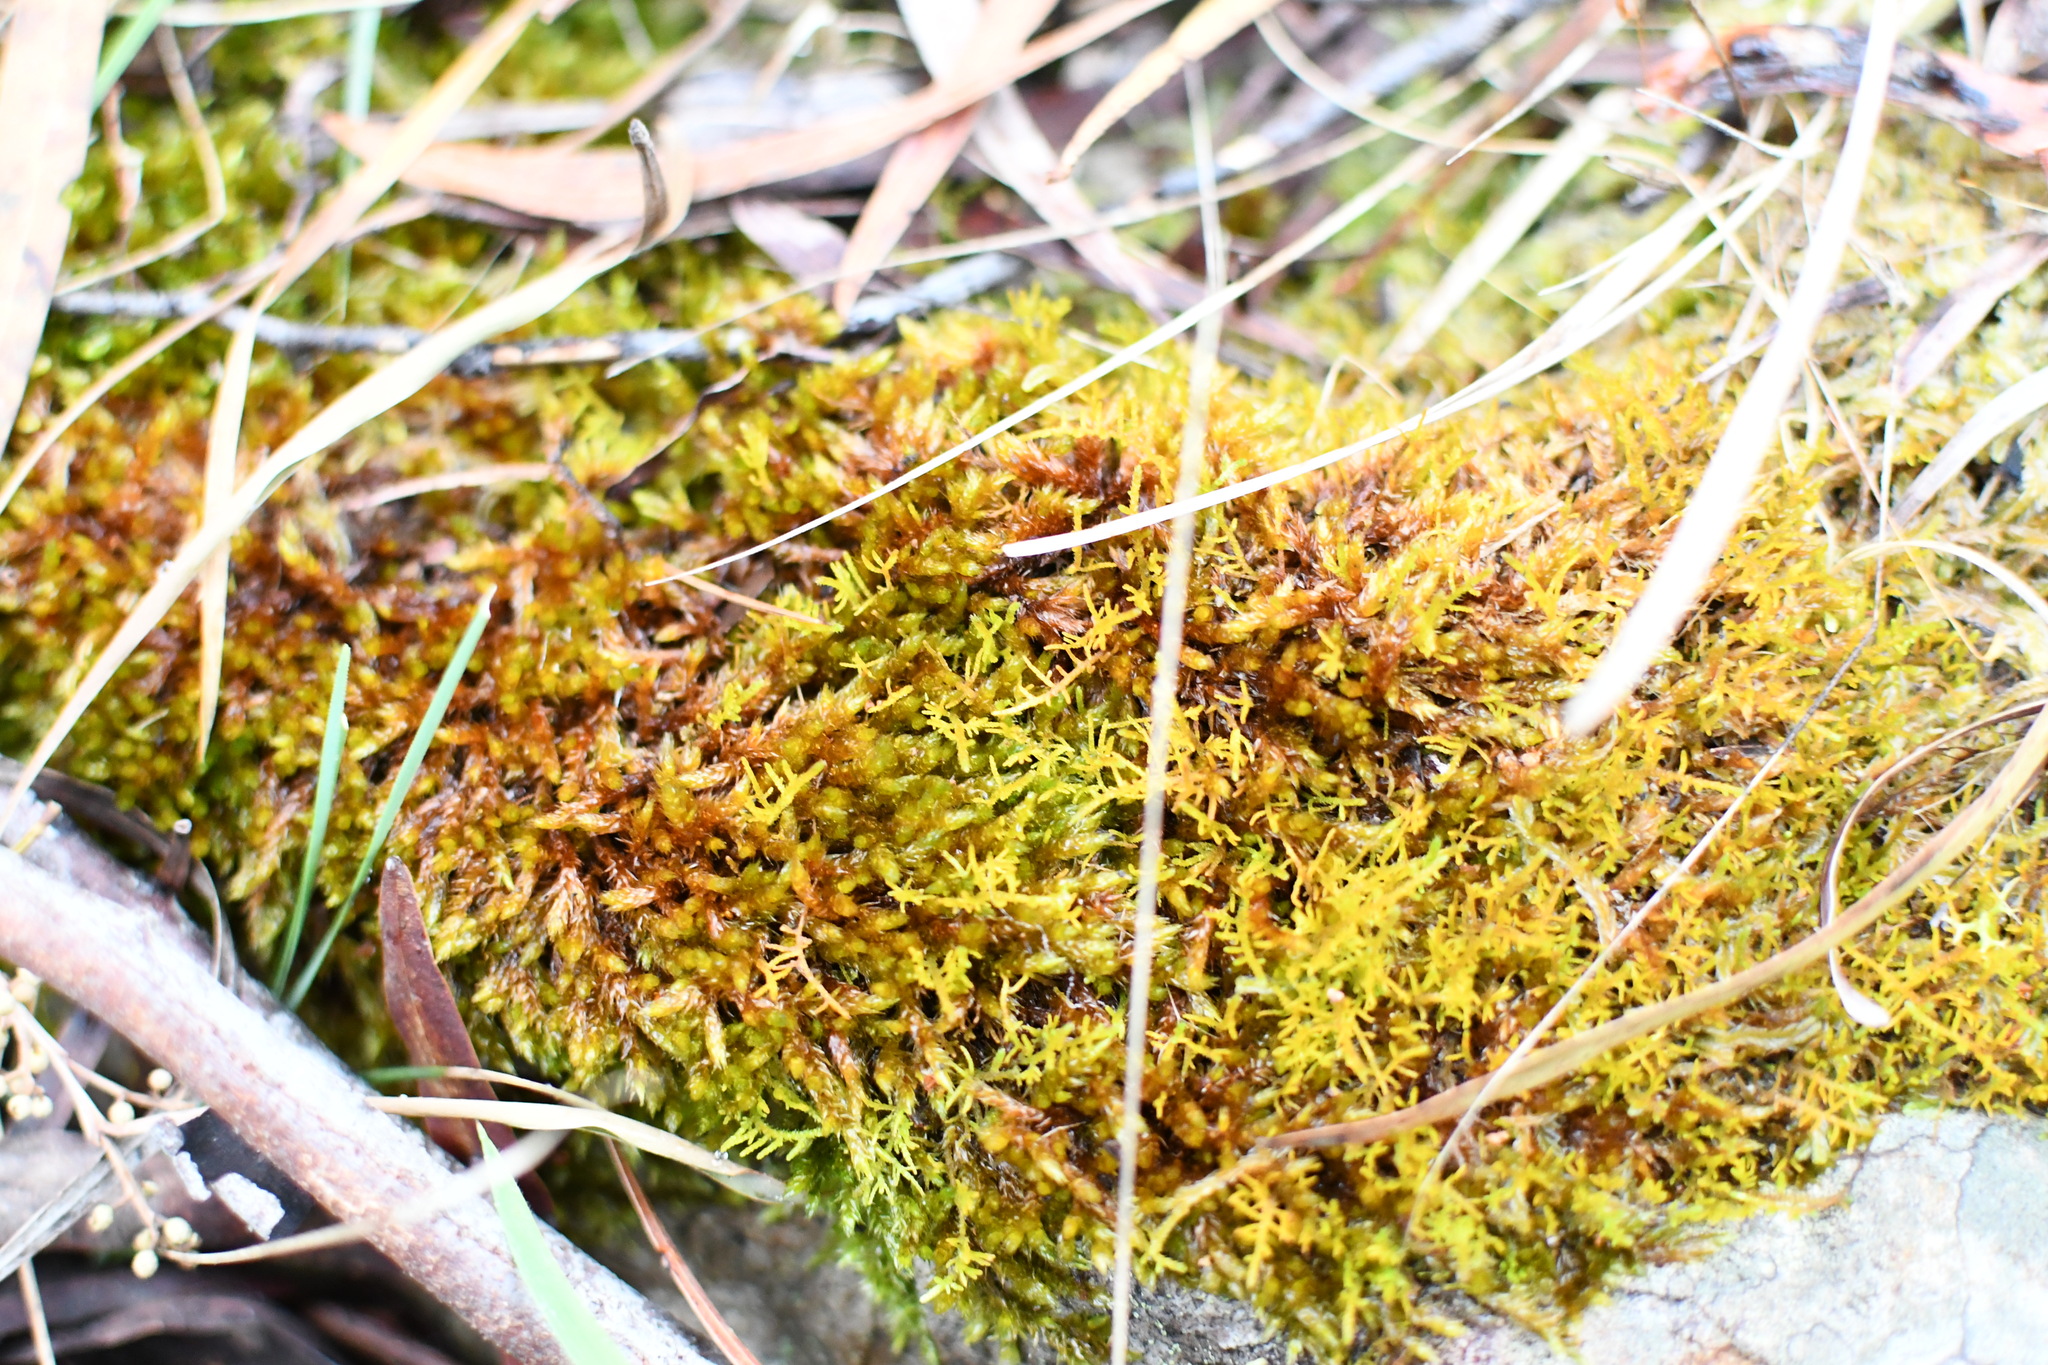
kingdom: Plantae
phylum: Bryophyta
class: Bryopsida
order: Hypnales
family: Sematophyllaceae
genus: Sematophyllum
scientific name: Sematophyllum homomallum
